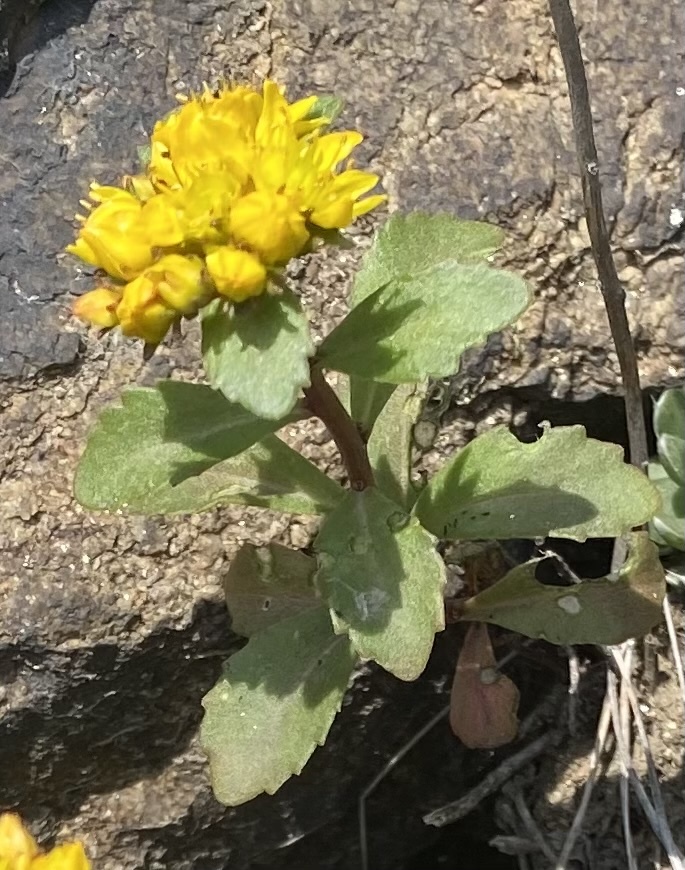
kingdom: Plantae
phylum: Tracheophyta
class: Magnoliopsida
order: Saxifragales
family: Crassulaceae
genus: Phedimus
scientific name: Phedimus aizoon
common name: Orpin aizoon
